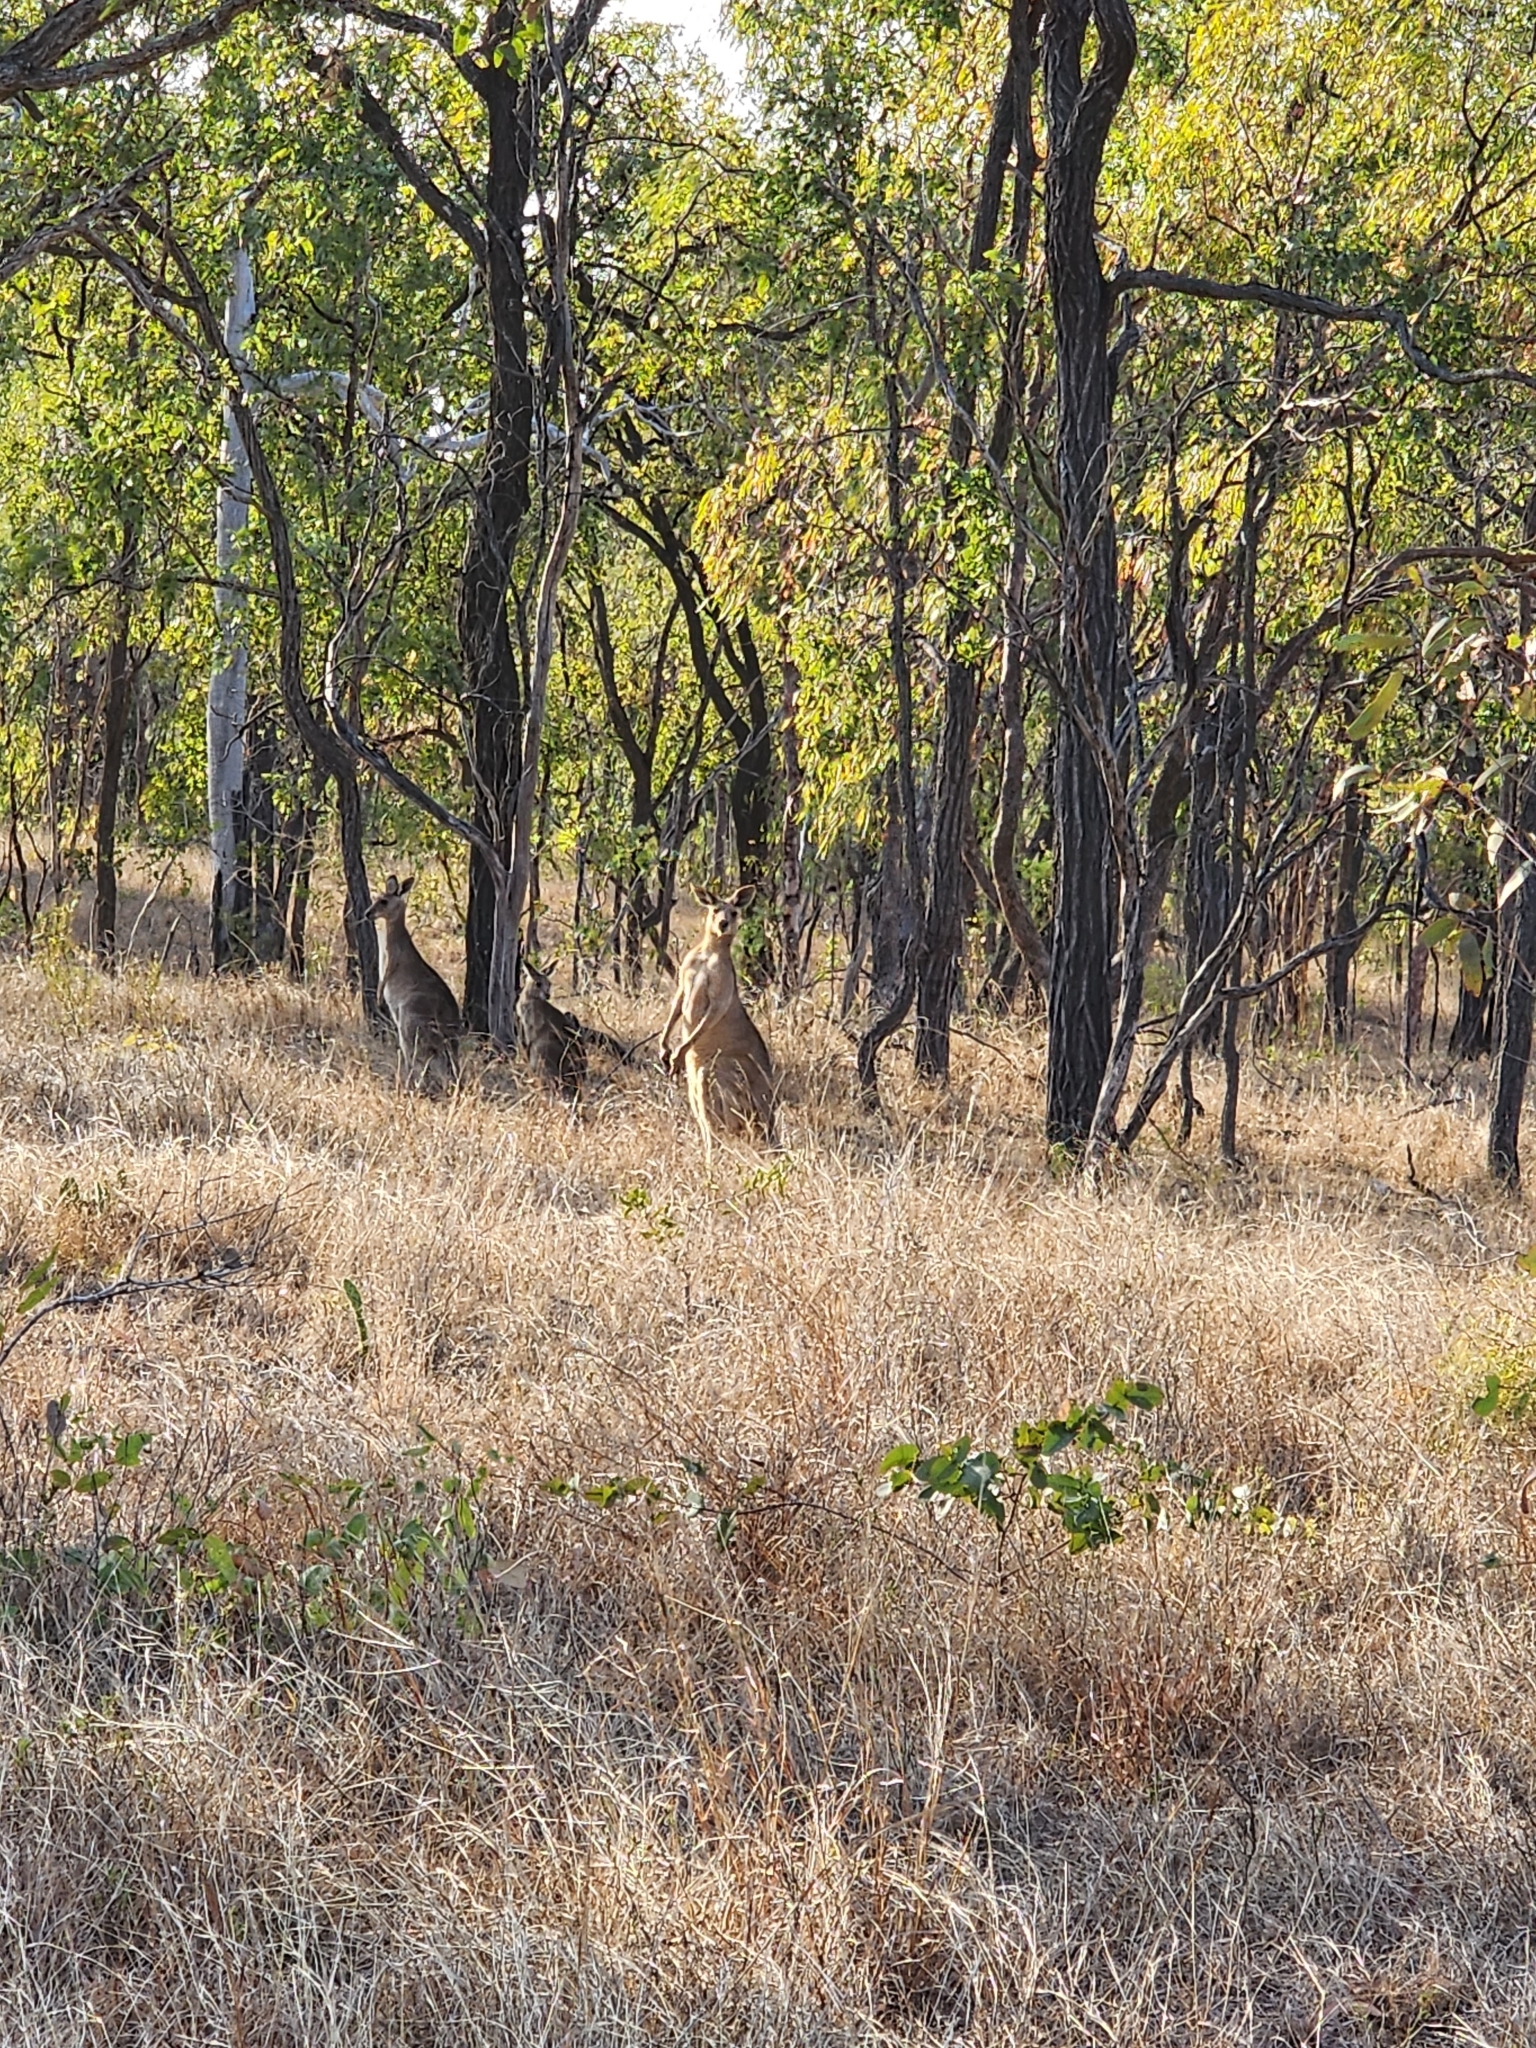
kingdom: Animalia
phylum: Chordata
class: Mammalia
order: Diprotodontia
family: Macropodidae
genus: Macropus
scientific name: Macropus giganteus
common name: Eastern grey kangaroo
